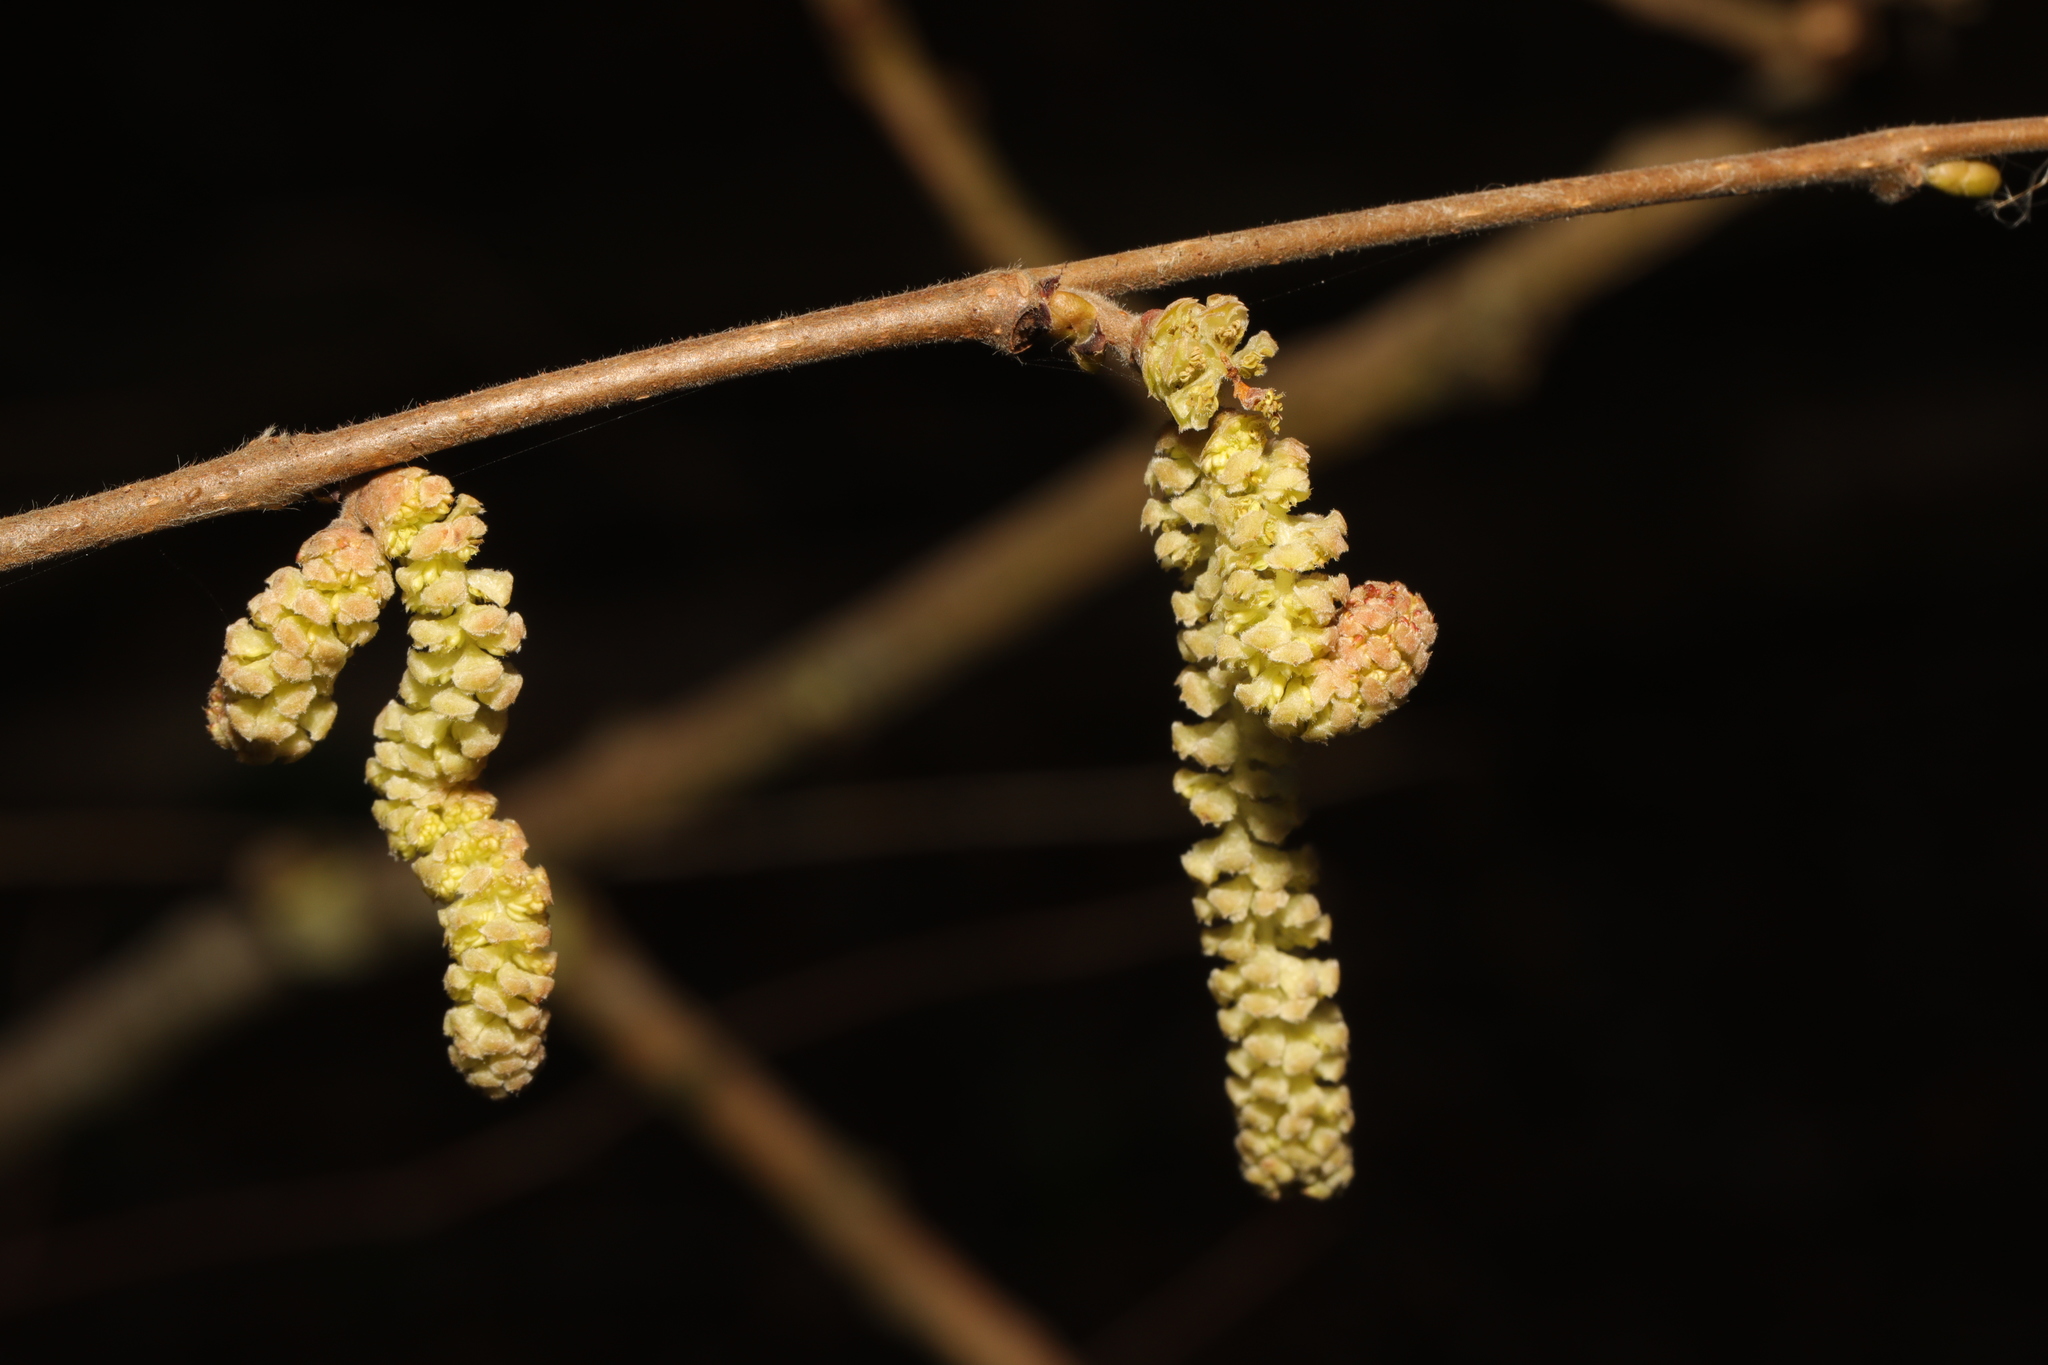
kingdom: Plantae
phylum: Tracheophyta
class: Magnoliopsida
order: Fagales
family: Betulaceae
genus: Corylus
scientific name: Corylus avellana
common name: European hazel
